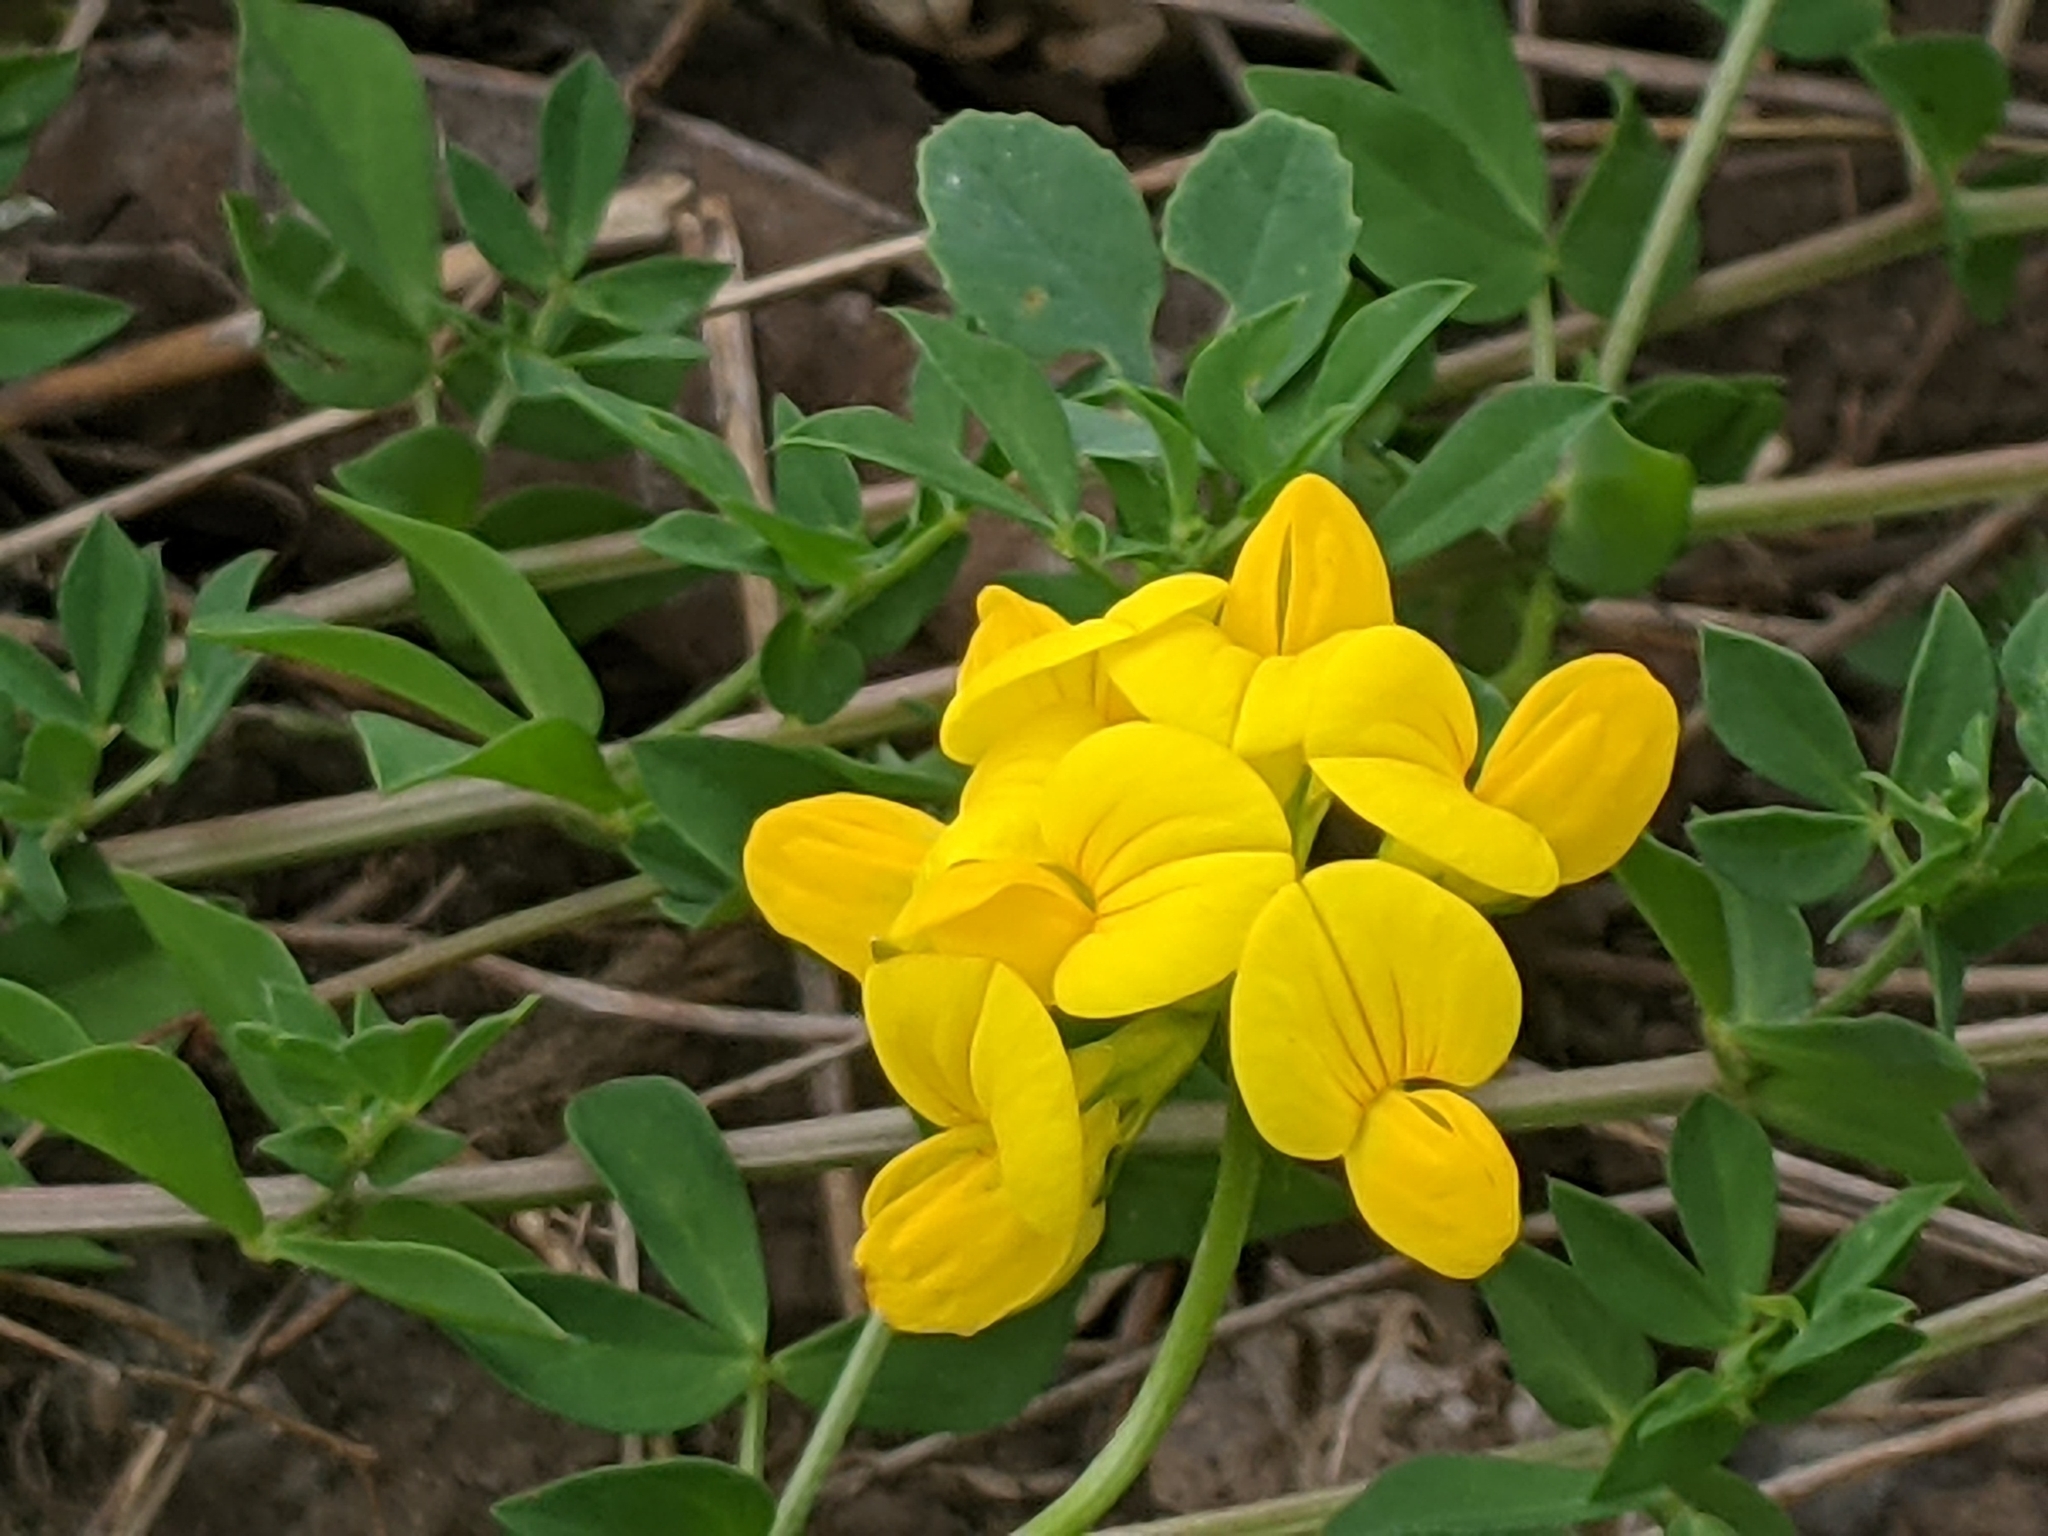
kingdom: Plantae
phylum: Tracheophyta
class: Magnoliopsida
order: Fabales
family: Fabaceae
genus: Lotus
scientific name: Lotus corniculatus
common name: Common bird's-foot-trefoil
